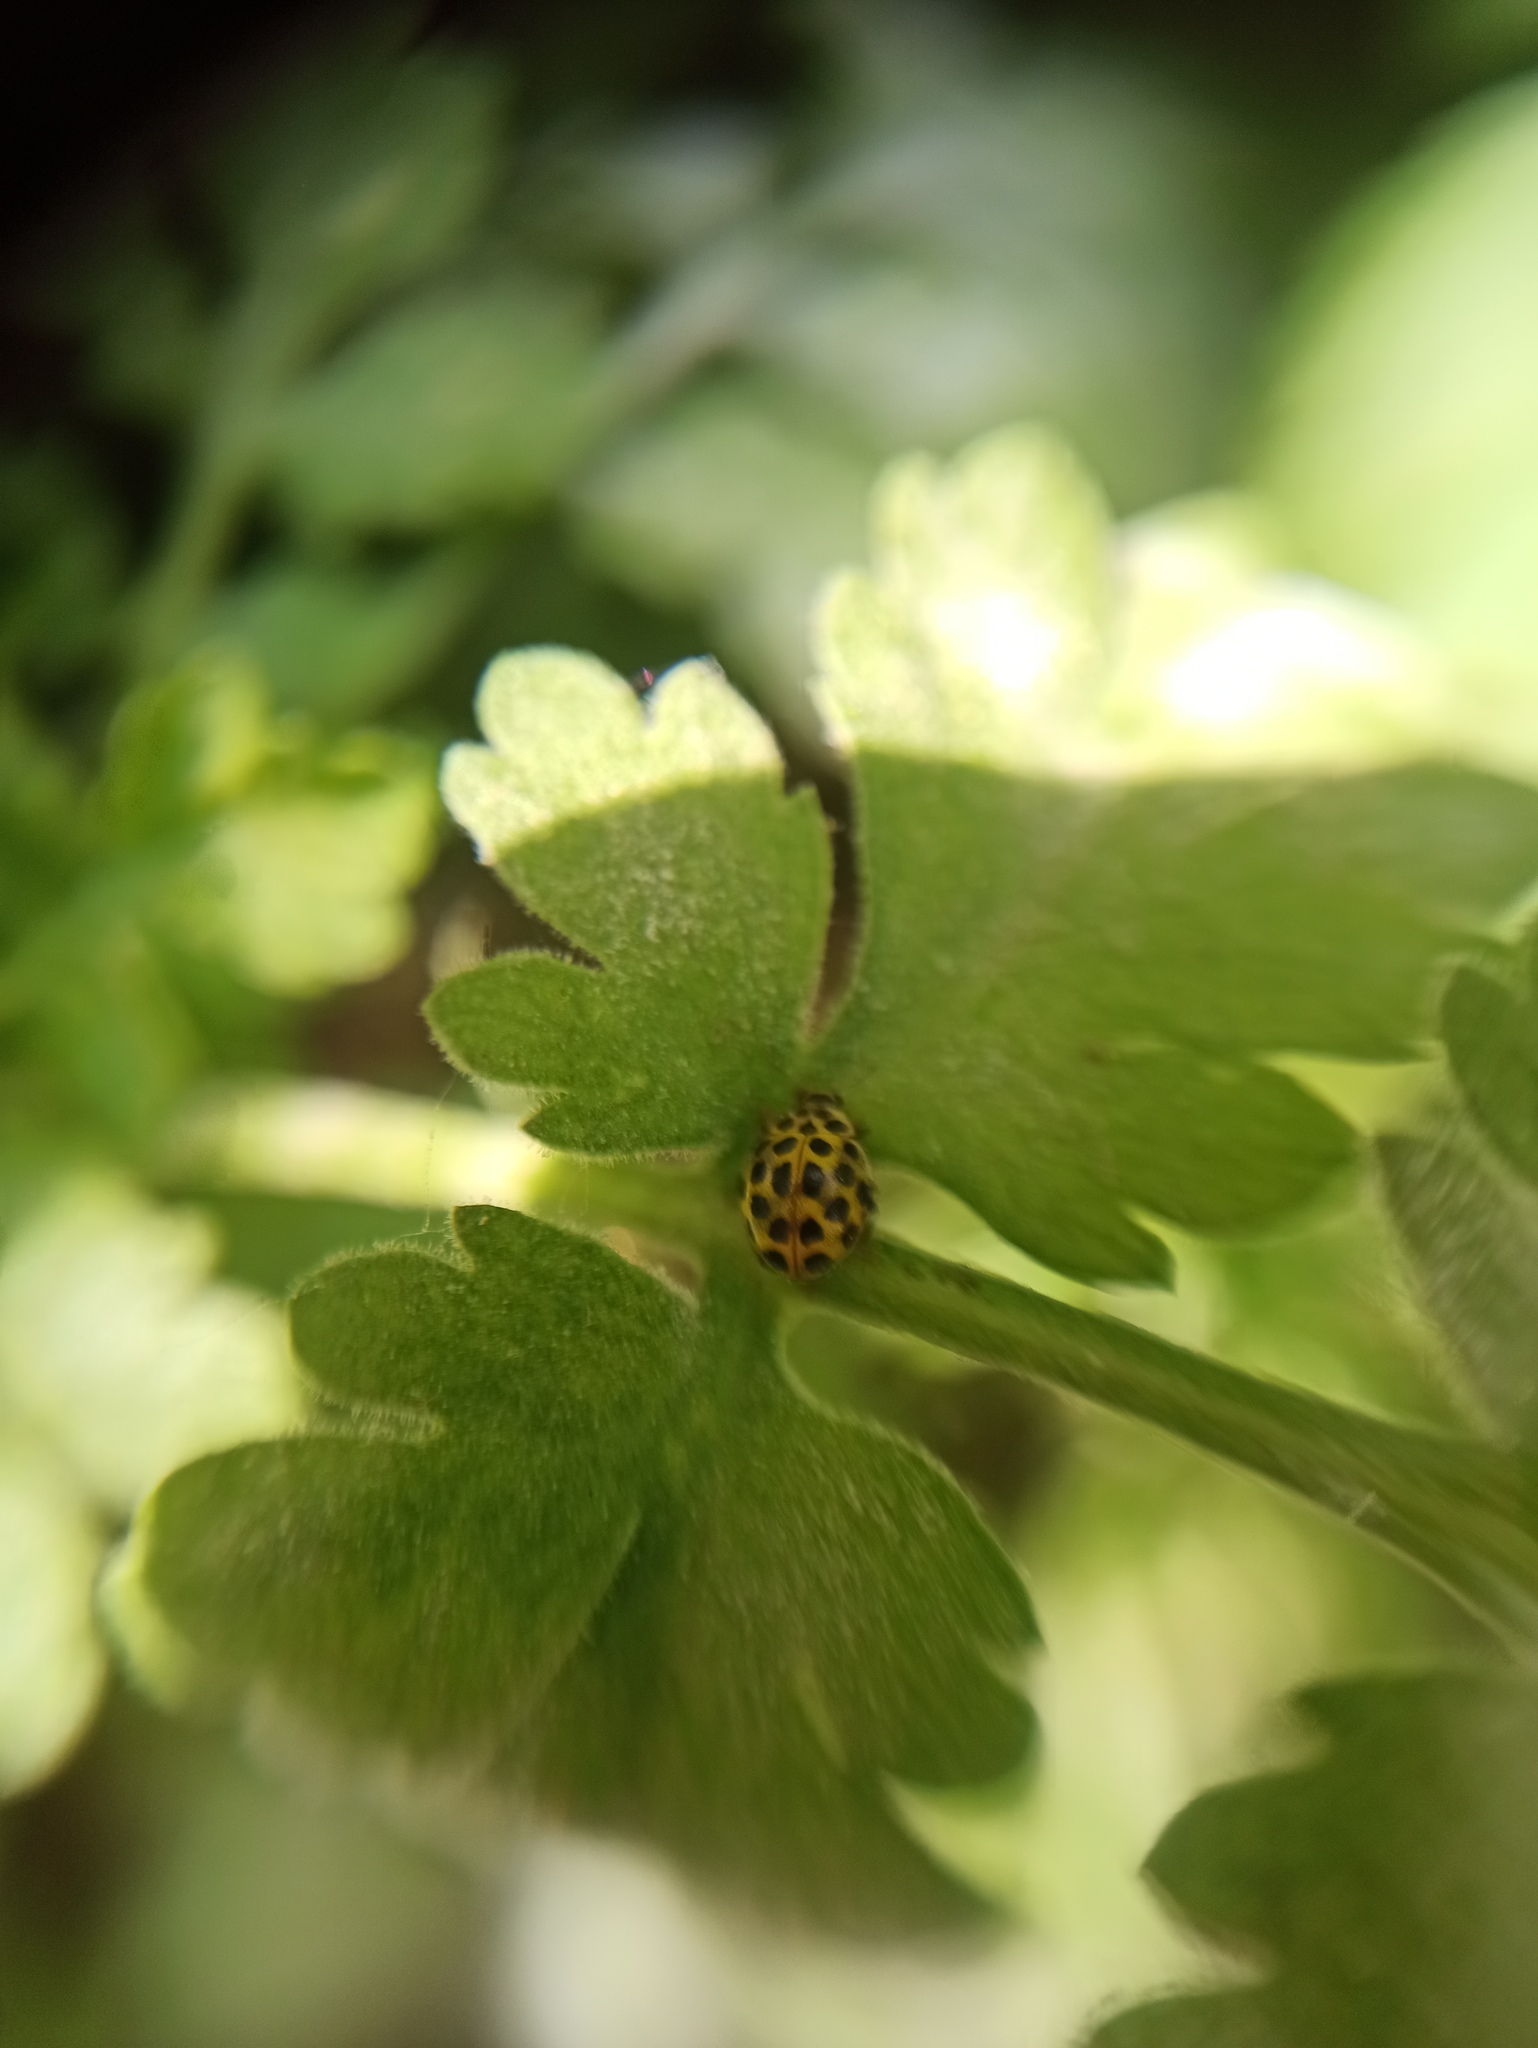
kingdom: Animalia
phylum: Arthropoda
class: Insecta
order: Coleoptera
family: Coccinellidae
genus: Psyllobora
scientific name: Psyllobora vigintiduopunctata
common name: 22-spot ladybird
